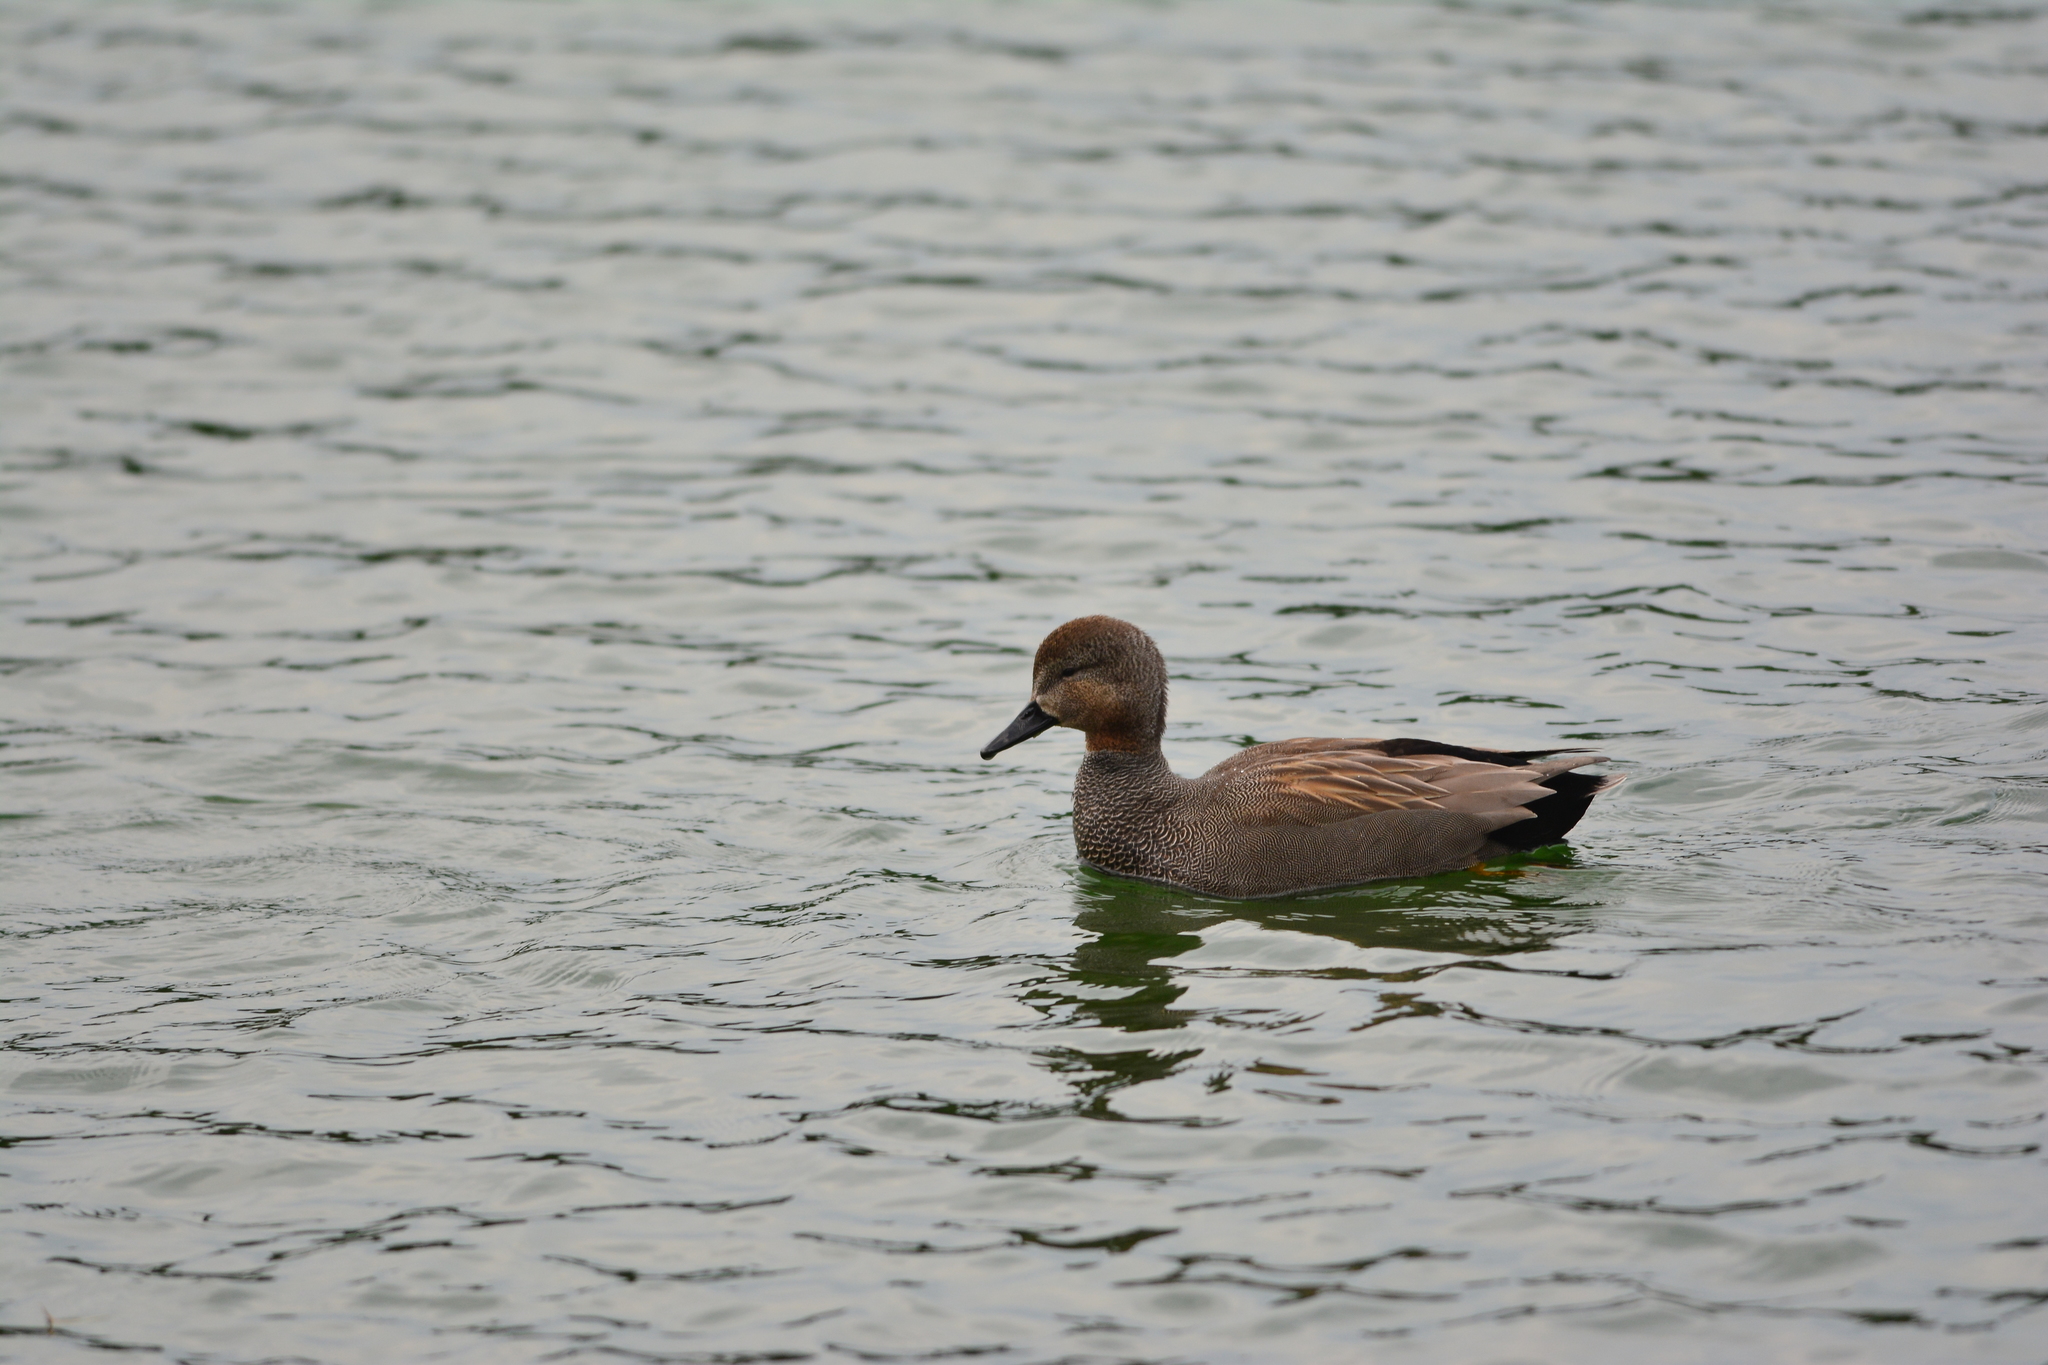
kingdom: Animalia
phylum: Chordata
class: Aves
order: Anseriformes
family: Anatidae
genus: Mareca
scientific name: Mareca strepera
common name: Gadwall
